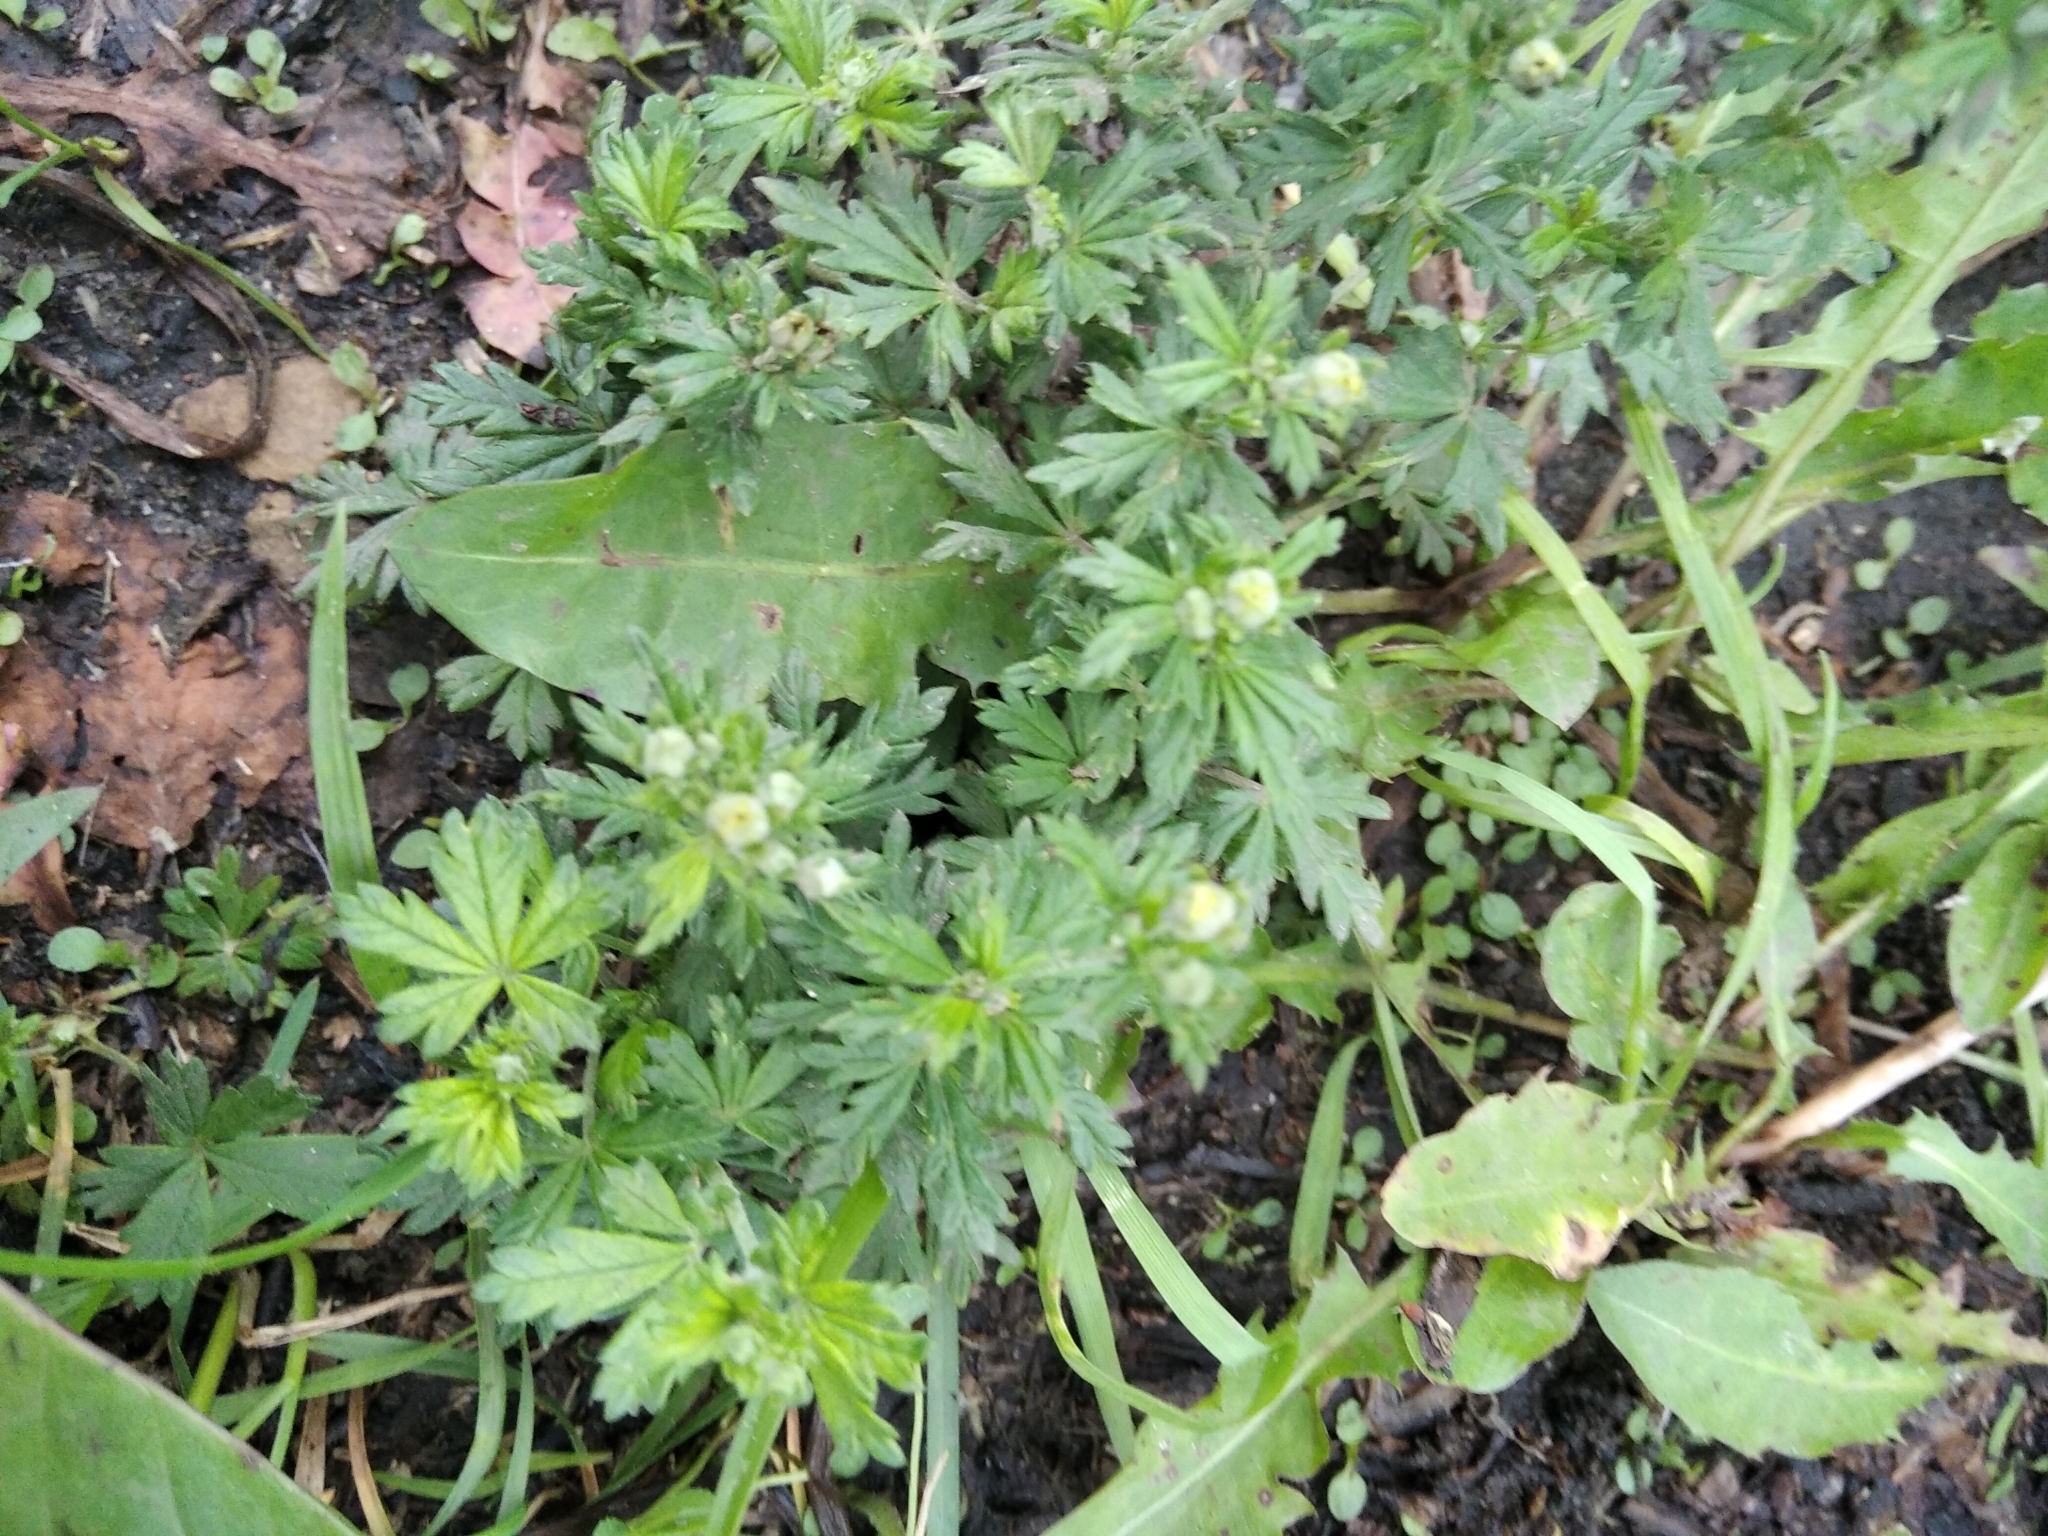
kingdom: Plantae
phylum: Tracheophyta
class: Magnoliopsida
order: Rosales
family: Rosaceae
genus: Potentilla
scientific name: Potentilla argentea
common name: Hoary cinquefoil
